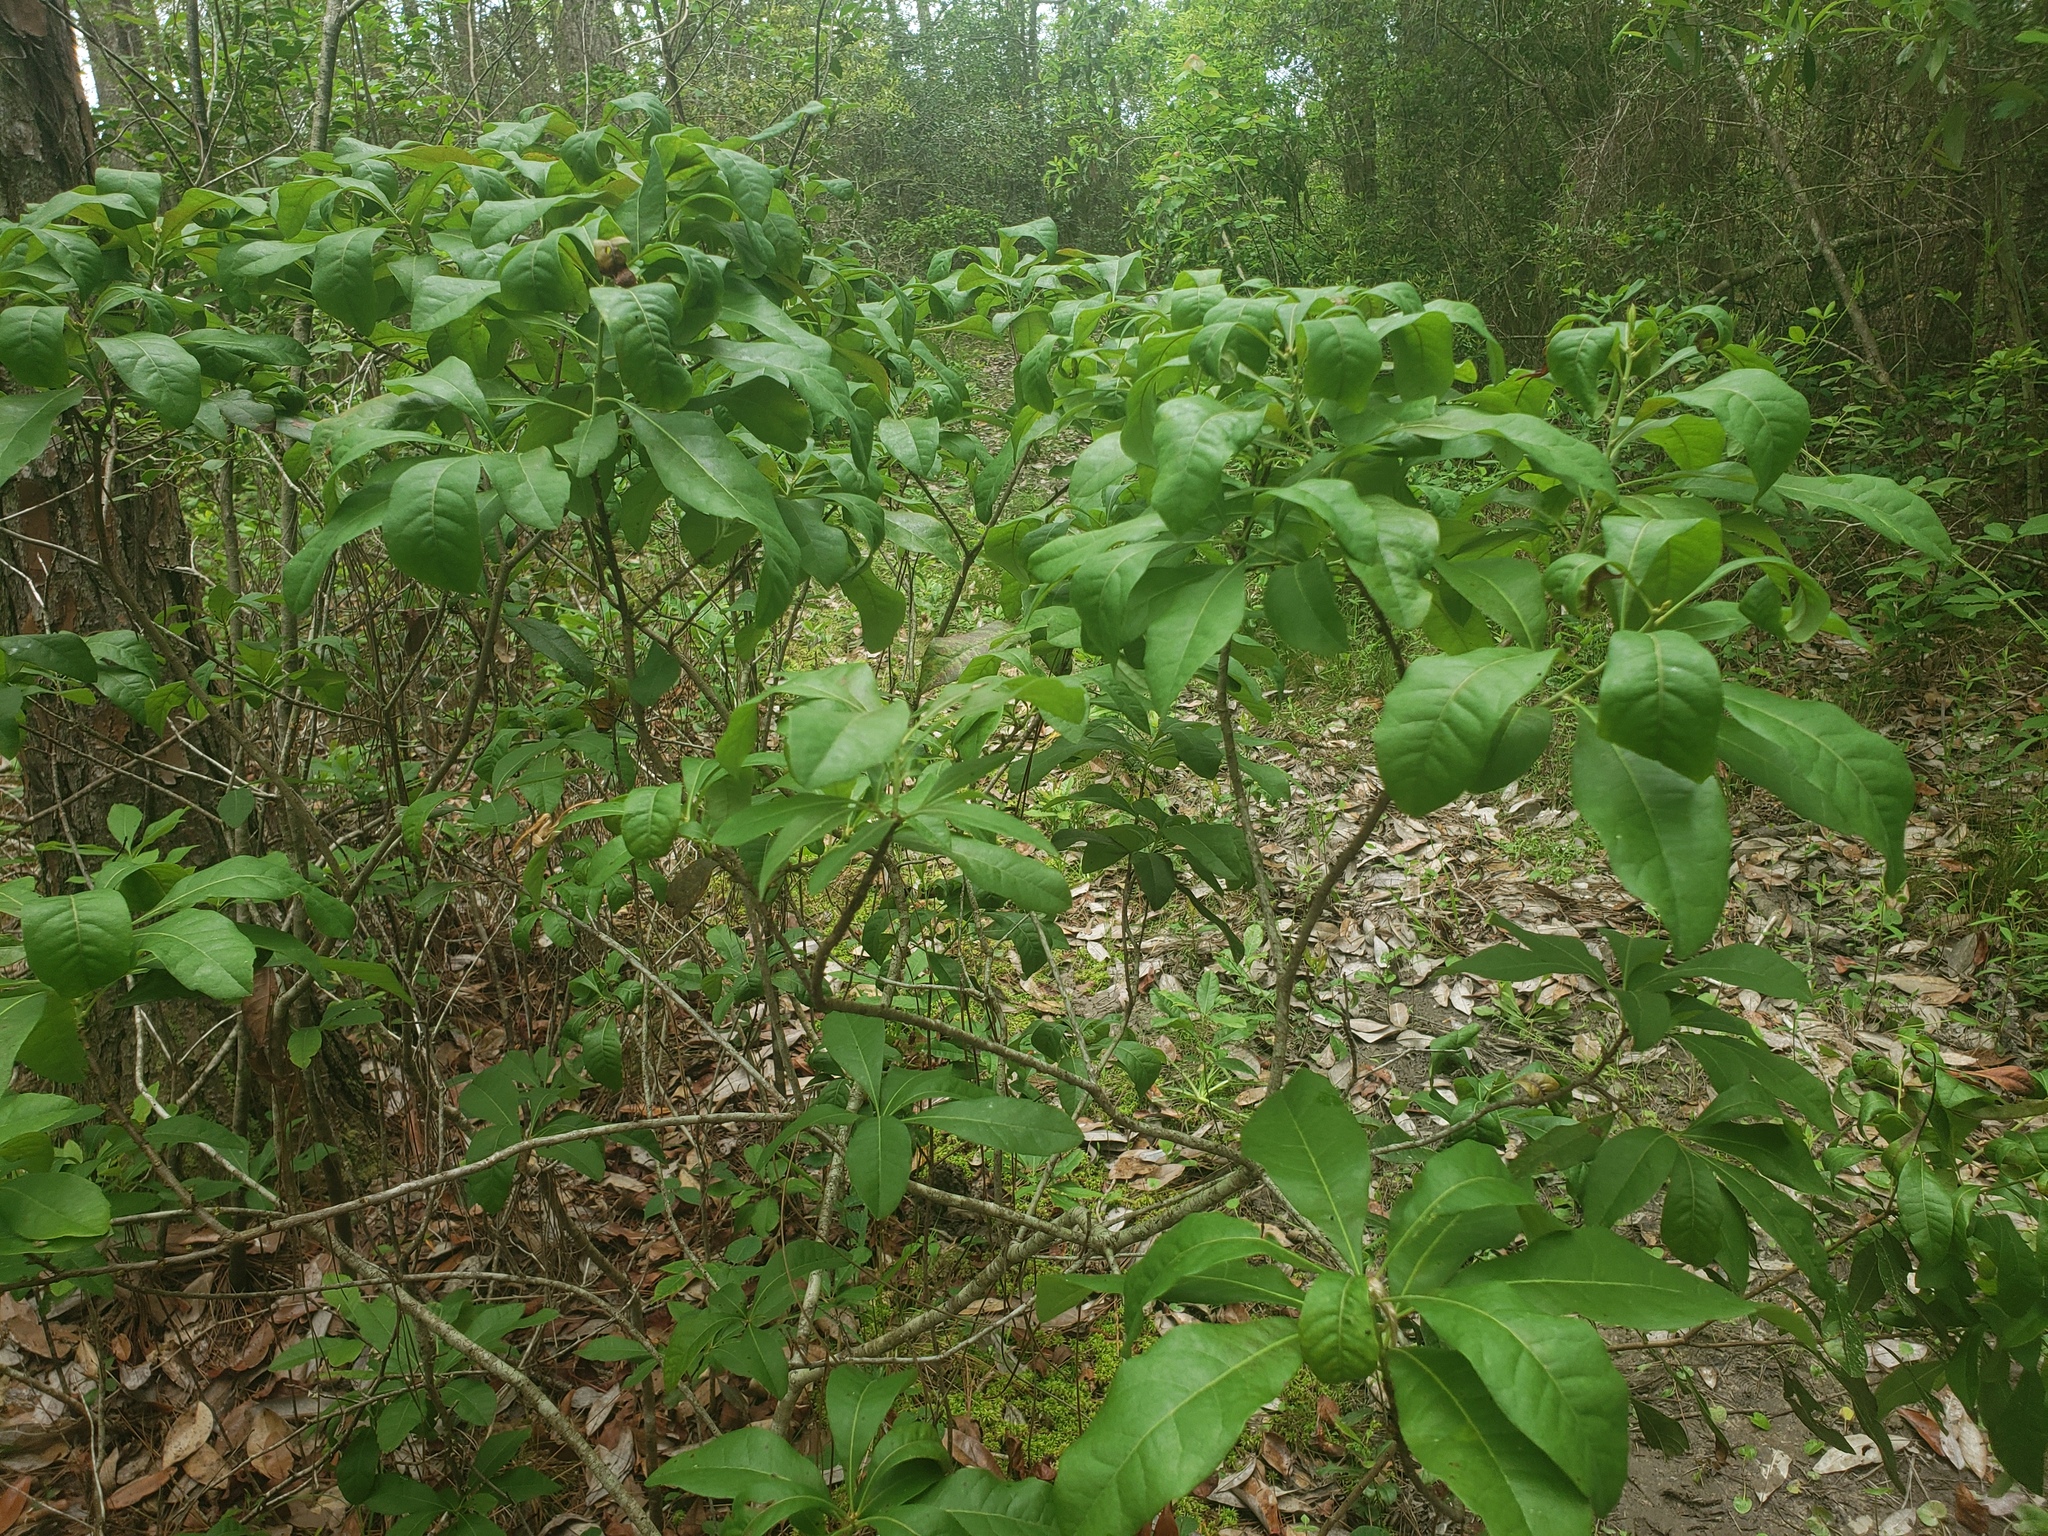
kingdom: Plantae
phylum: Tracheophyta
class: Magnoliopsida
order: Lamiales
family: Oleaceae
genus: Chionanthus
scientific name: Chionanthus virginicus
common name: American fringetree
